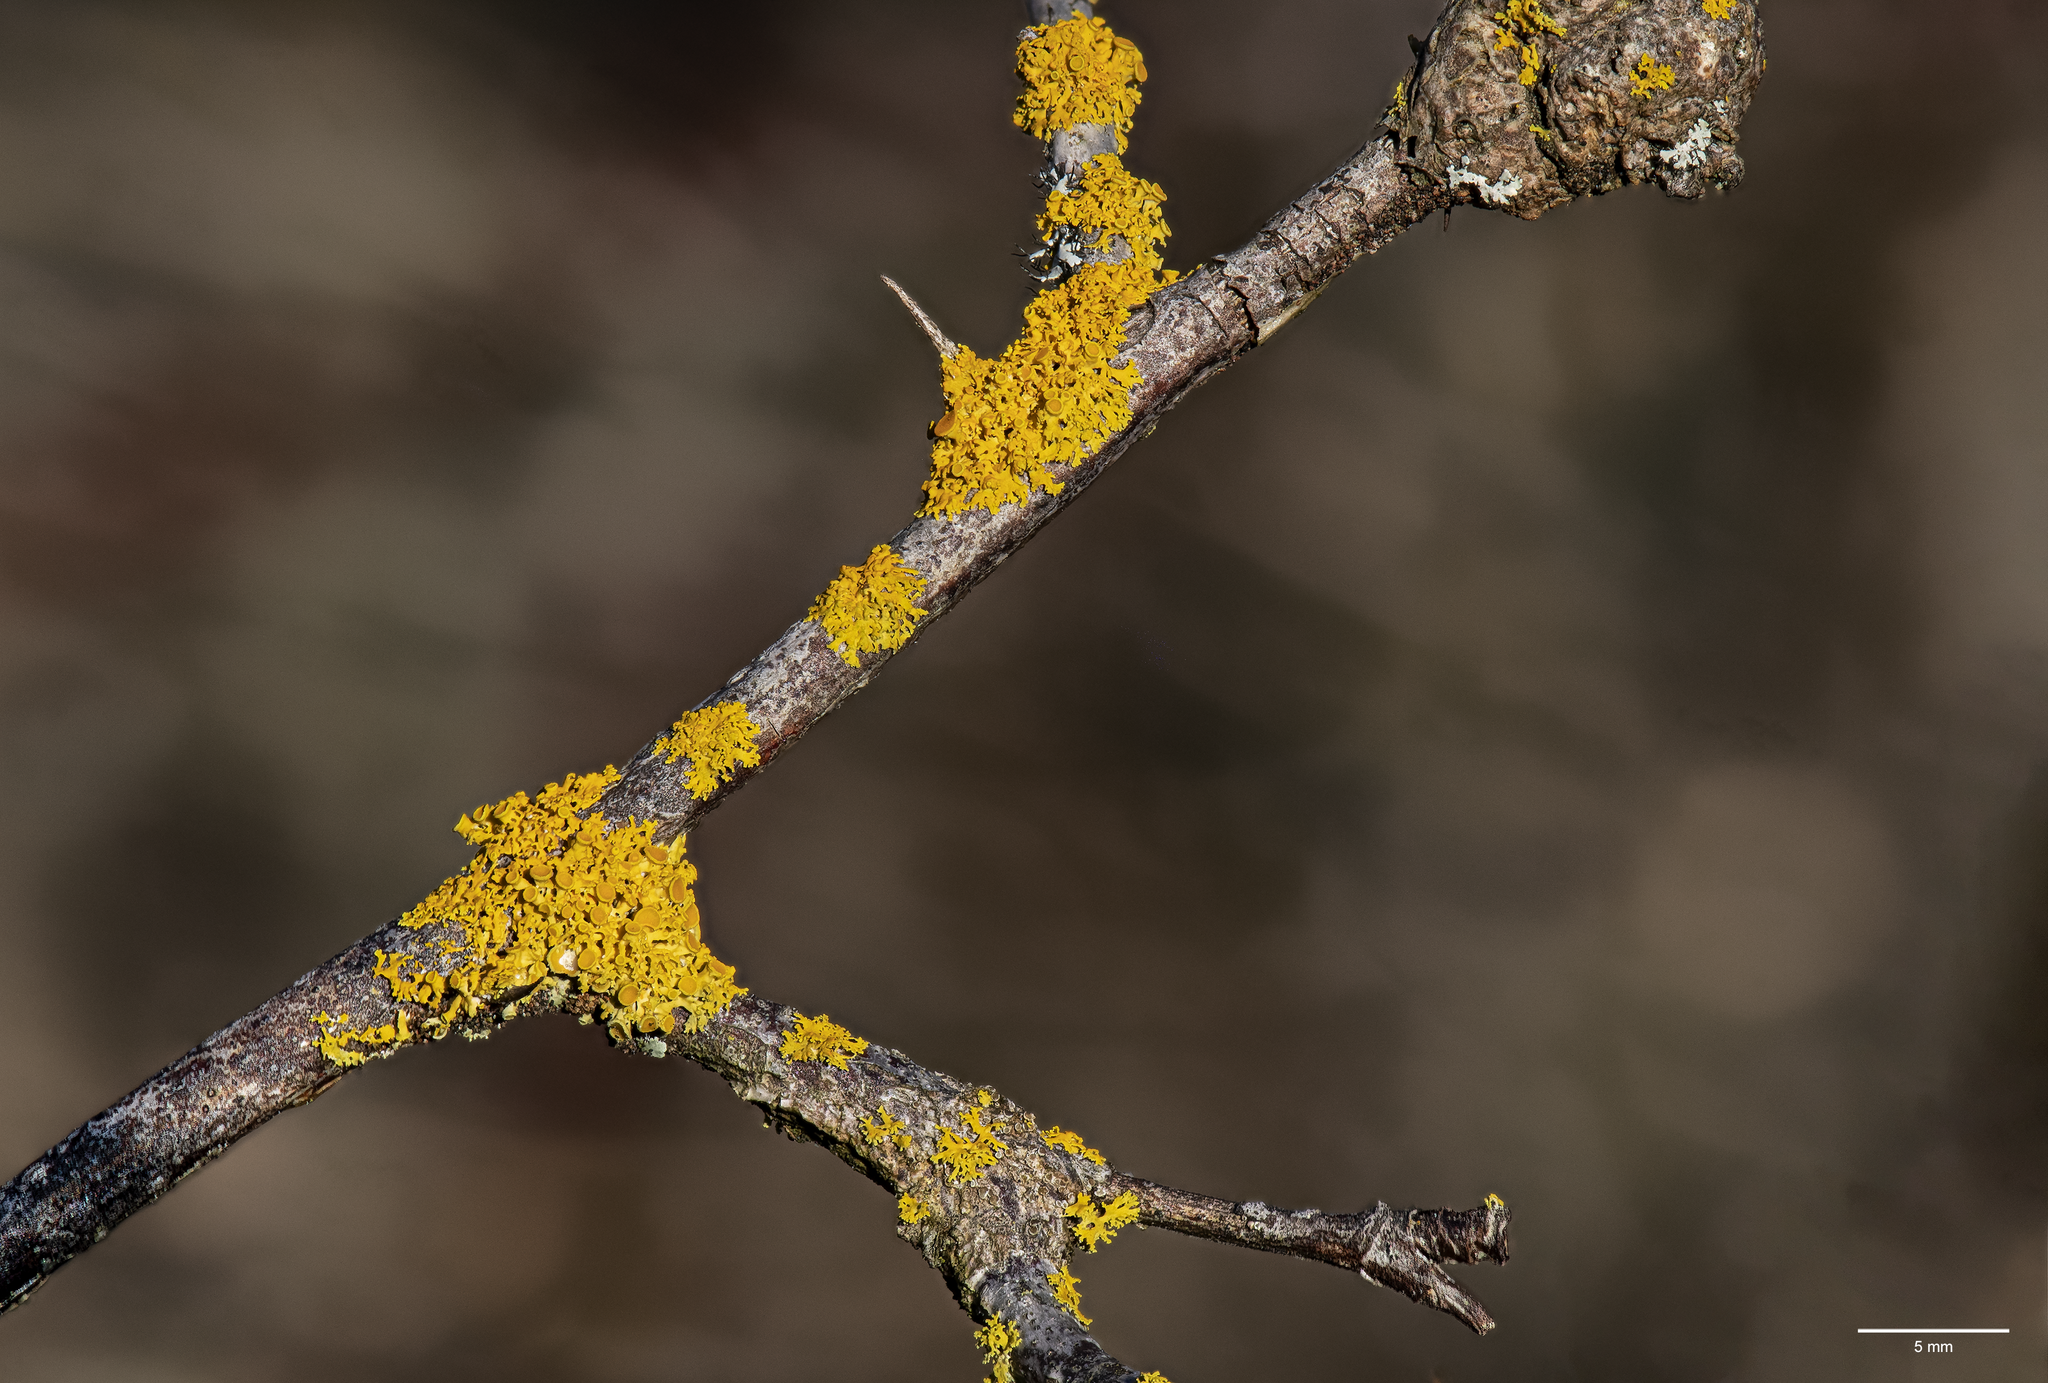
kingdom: Fungi
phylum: Ascomycota
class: Lecanoromycetes
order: Teloschistales
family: Teloschistaceae
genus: Polycauliona
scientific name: Polycauliona polycarpa
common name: Pin-cushion sunburst lichen
